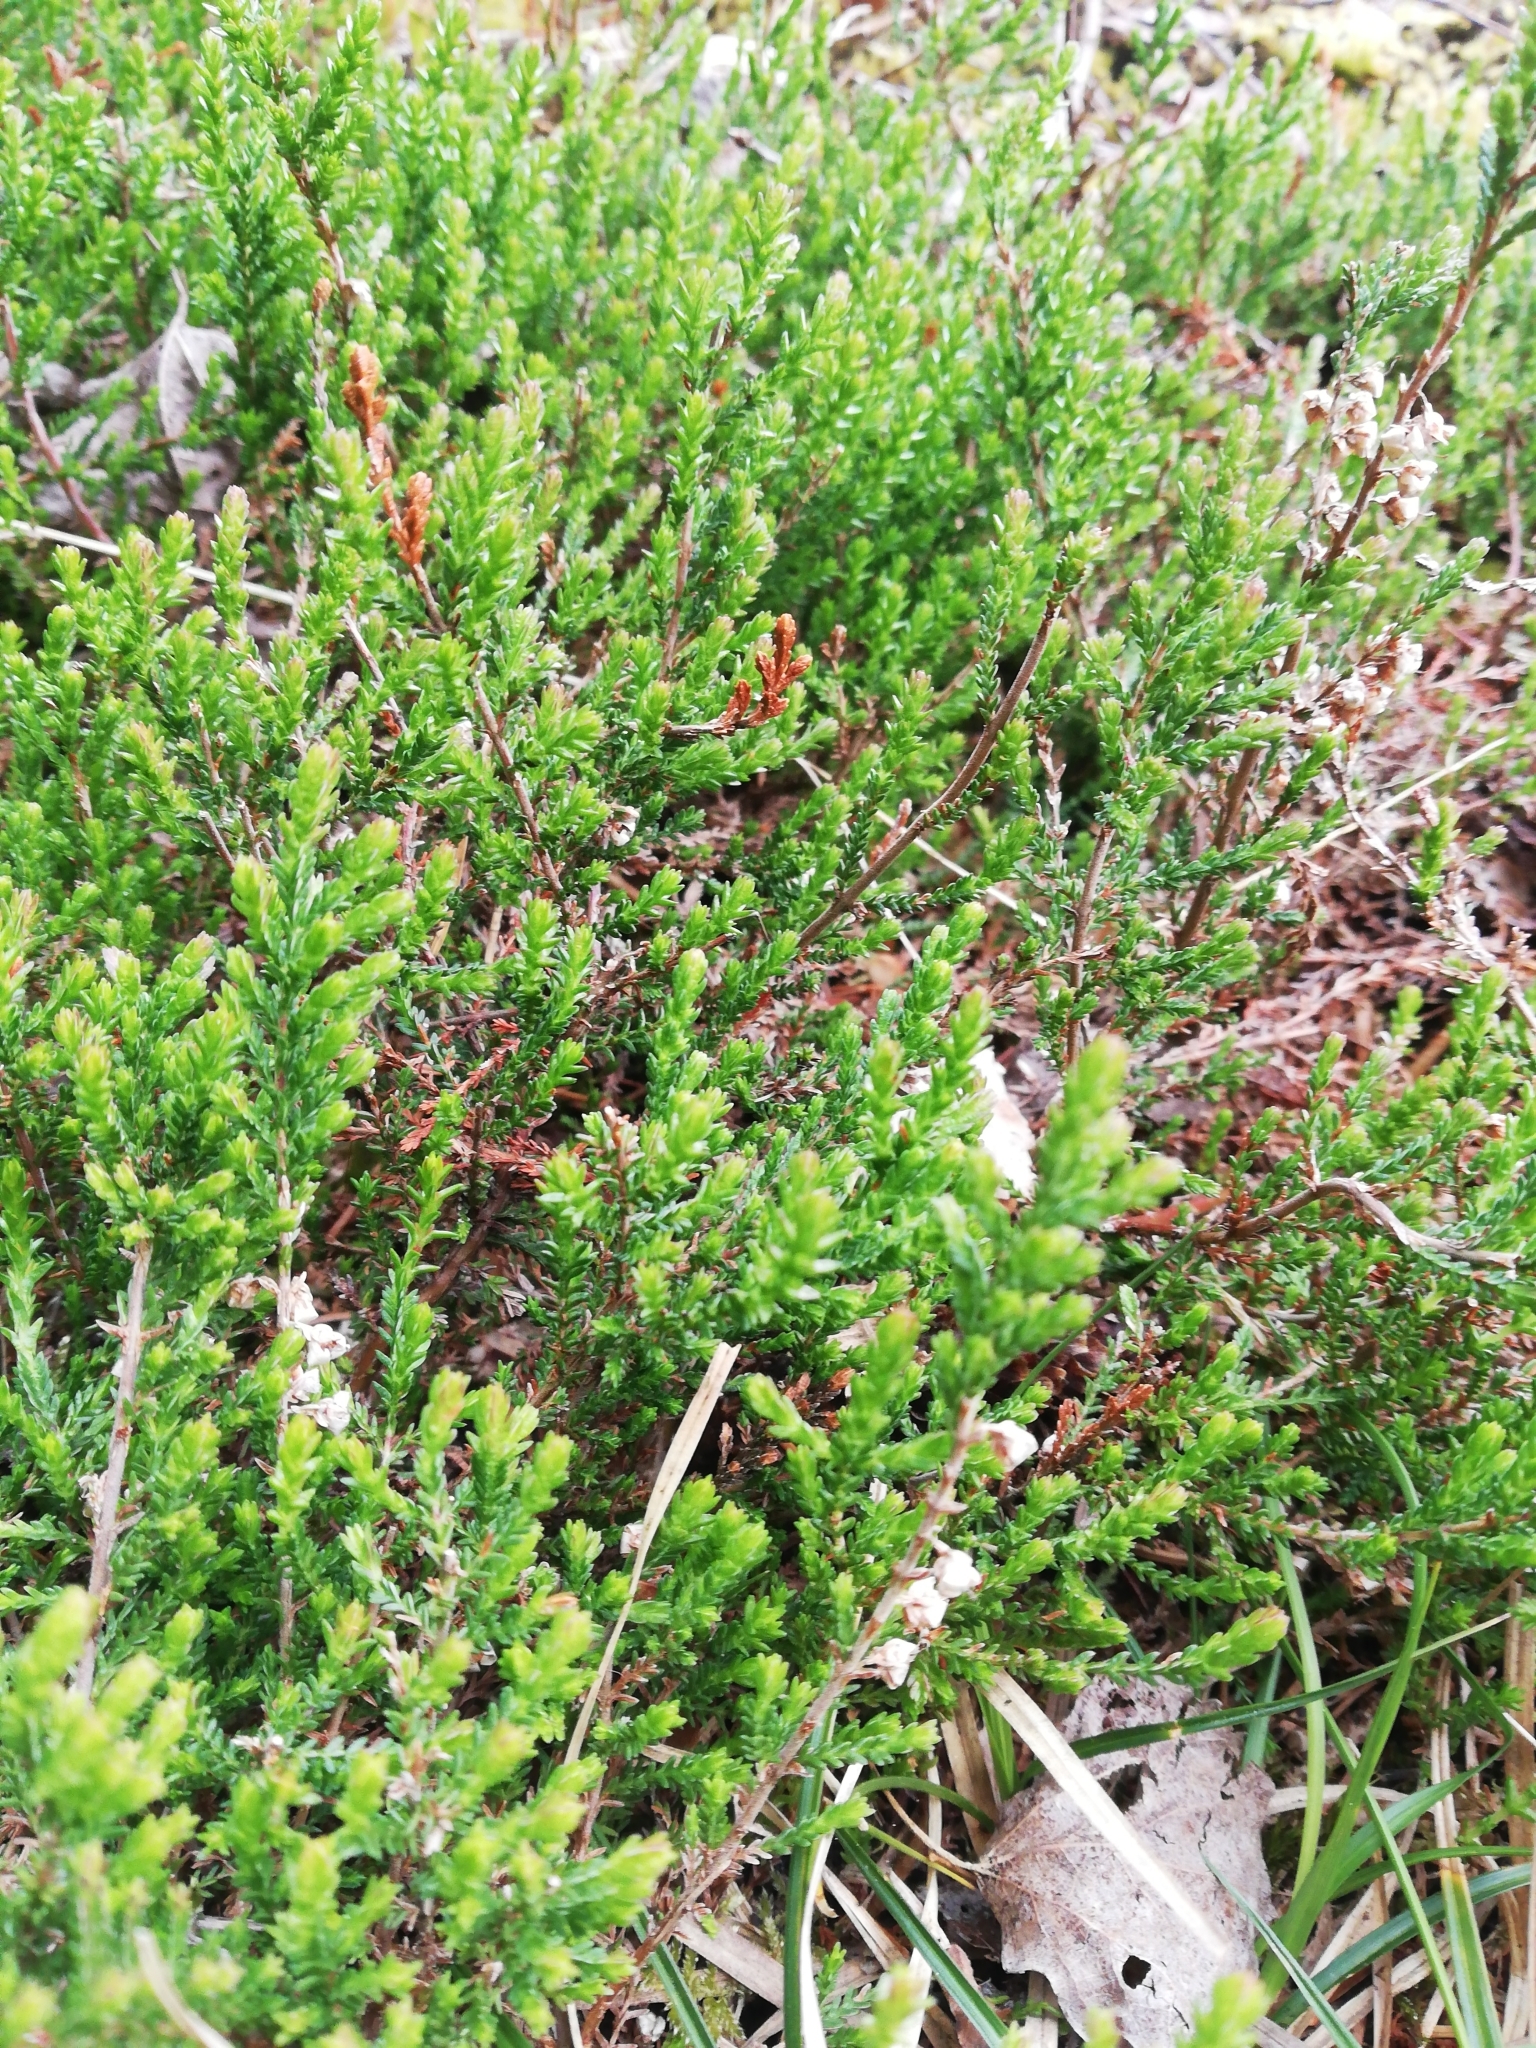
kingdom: Plantae
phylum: Tracheophyta
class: Magnoliopsida
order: Ericales
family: Ericaceae
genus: Calluna
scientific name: Calluna vulgaris
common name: Heather
